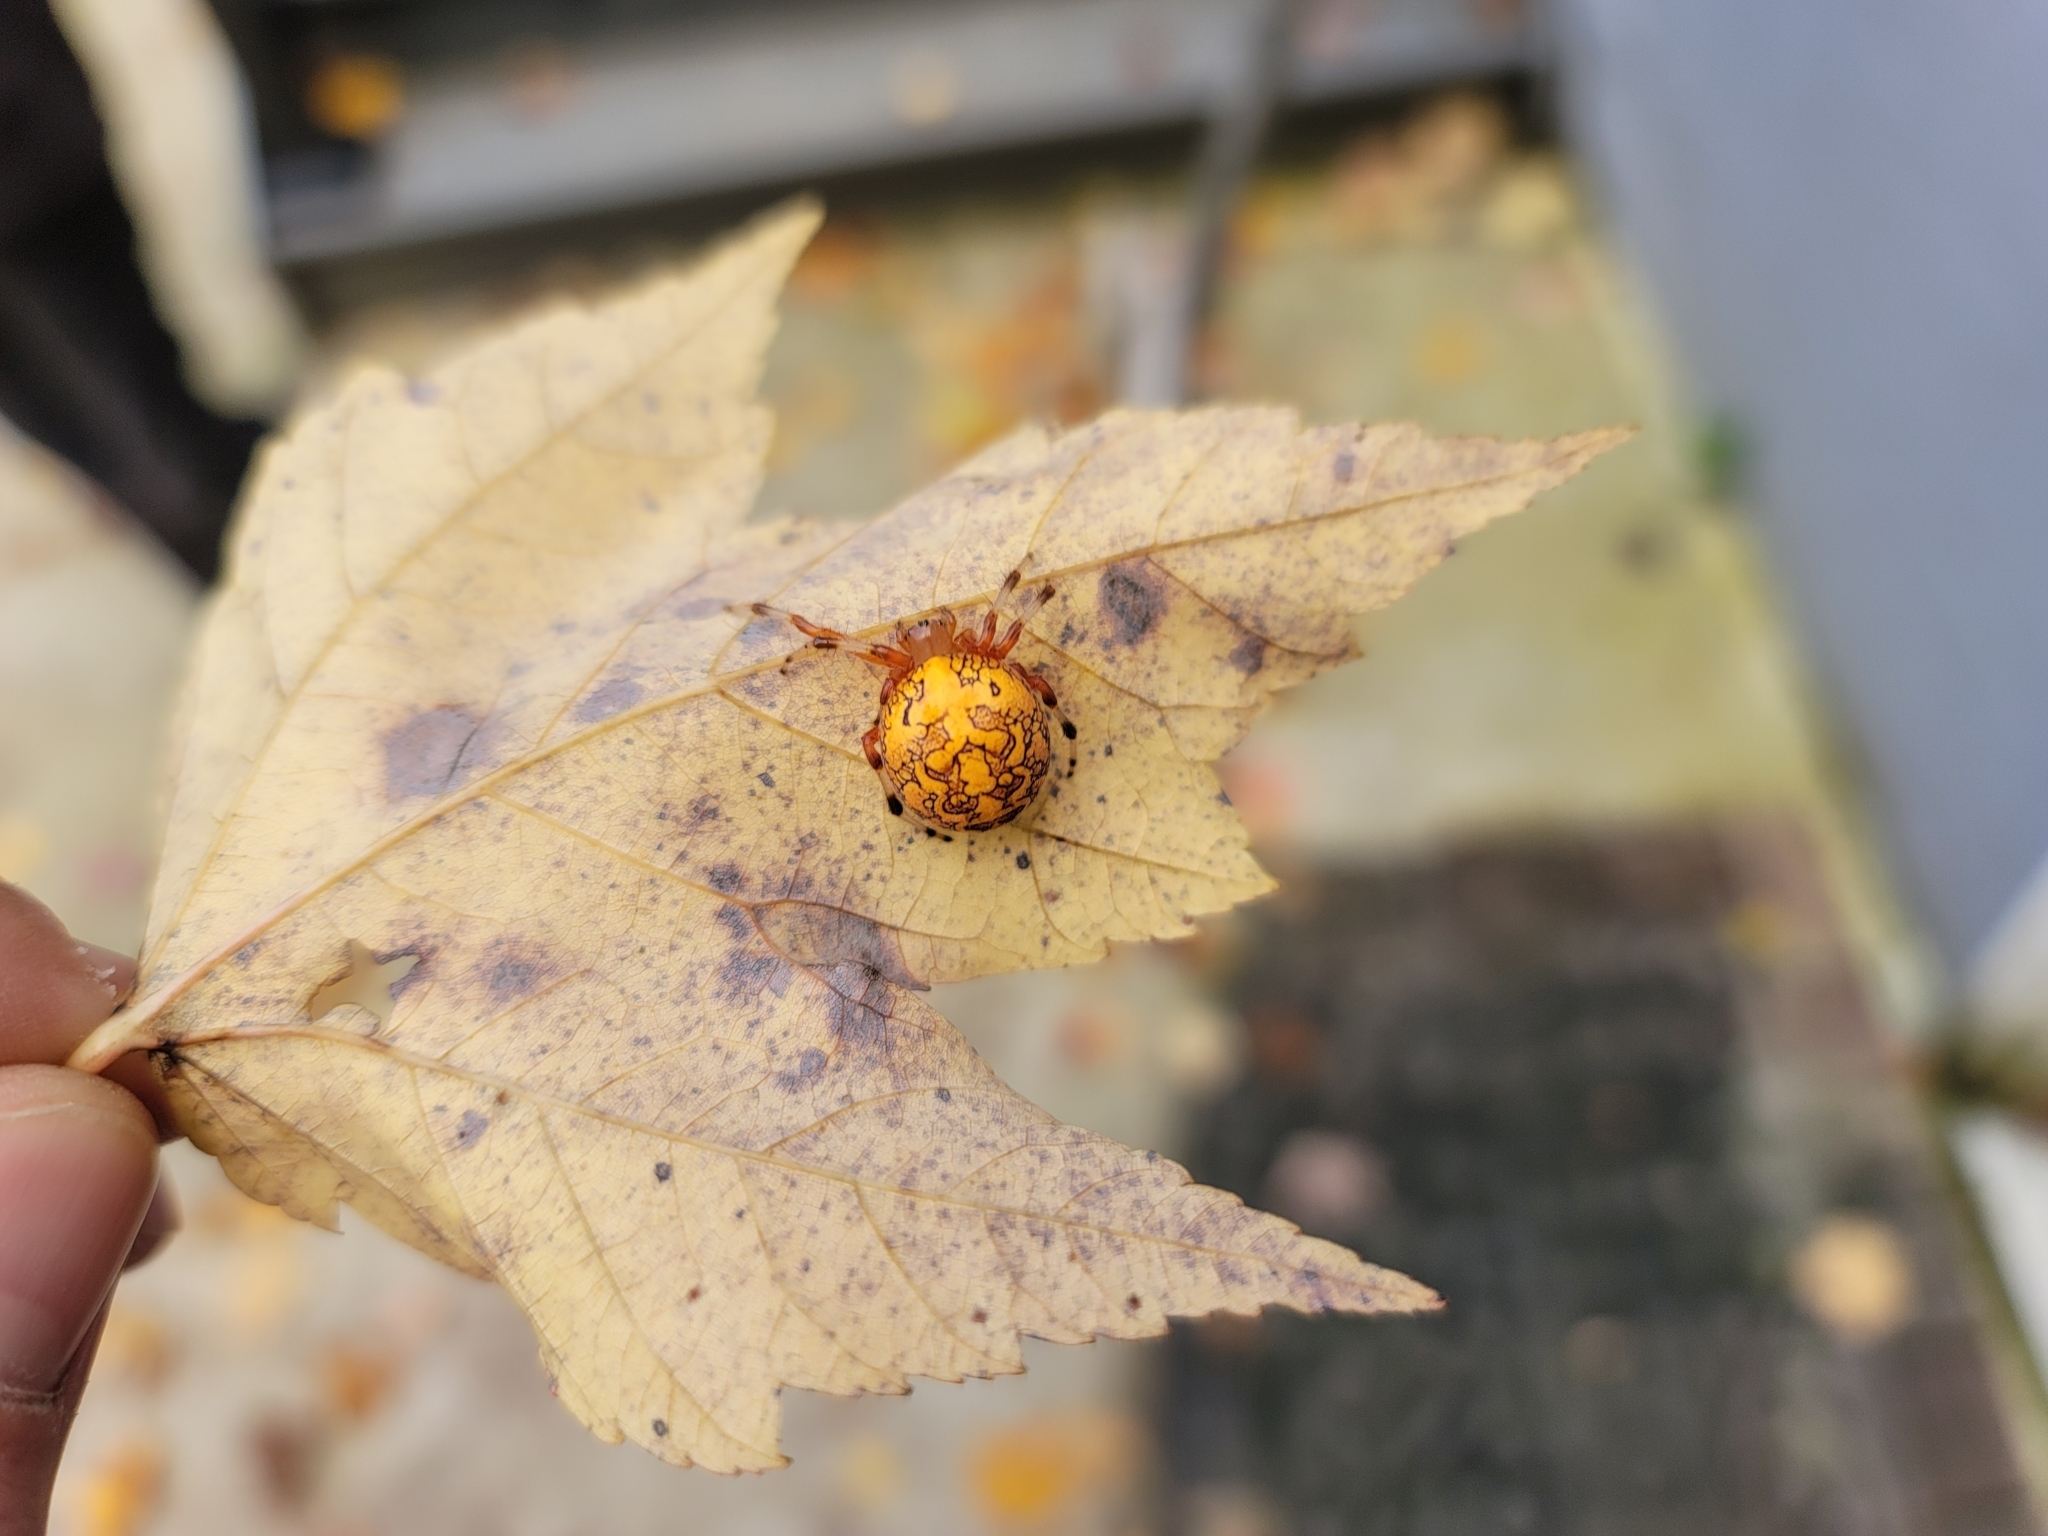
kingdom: Animalia
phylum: Arthropoda
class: Arachnida
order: Araneae
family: Araneidae
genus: Araneus
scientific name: Araneus marmoreus
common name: Marbled orbweaver
